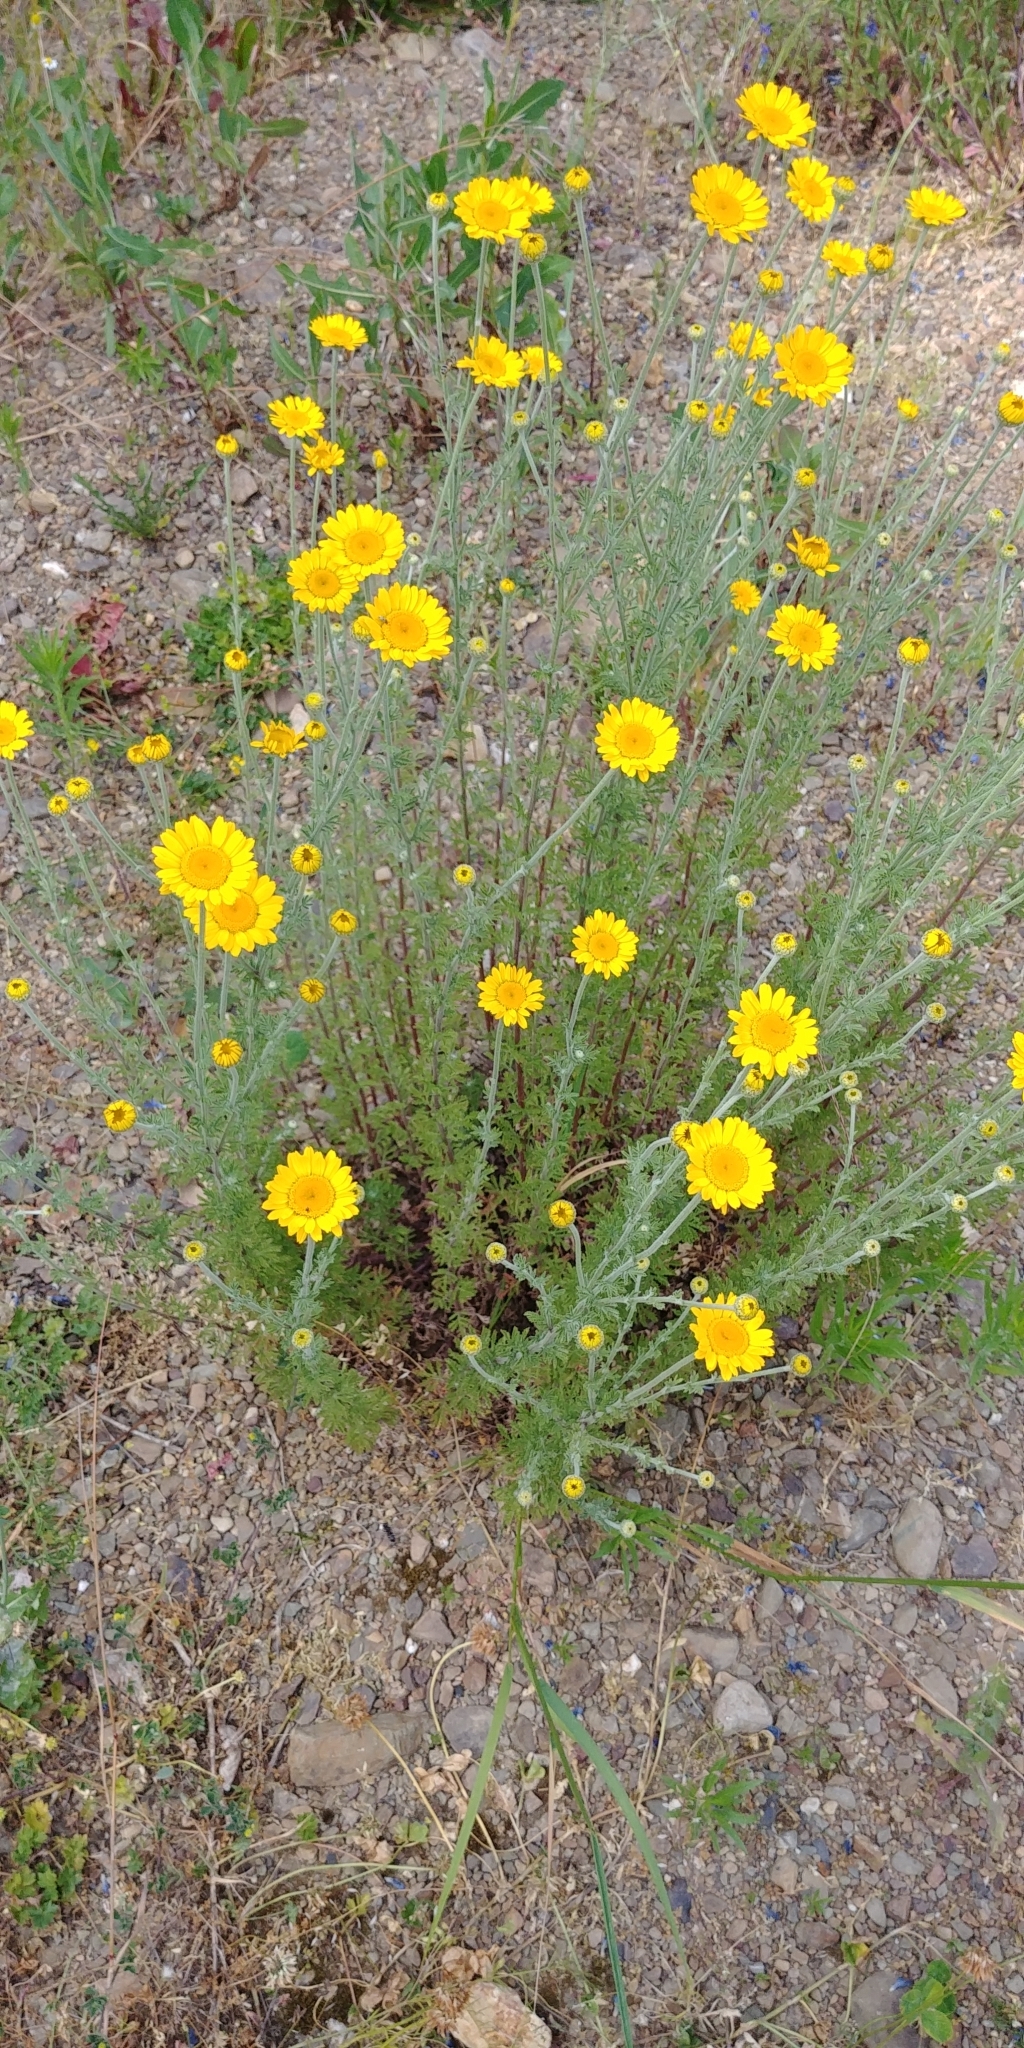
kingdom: Plantae
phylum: Tracheophyta
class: Magnoliopsida
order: Asterales
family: Asteraceae
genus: Cota
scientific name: Cota tinctoria
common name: Golden chamomile
